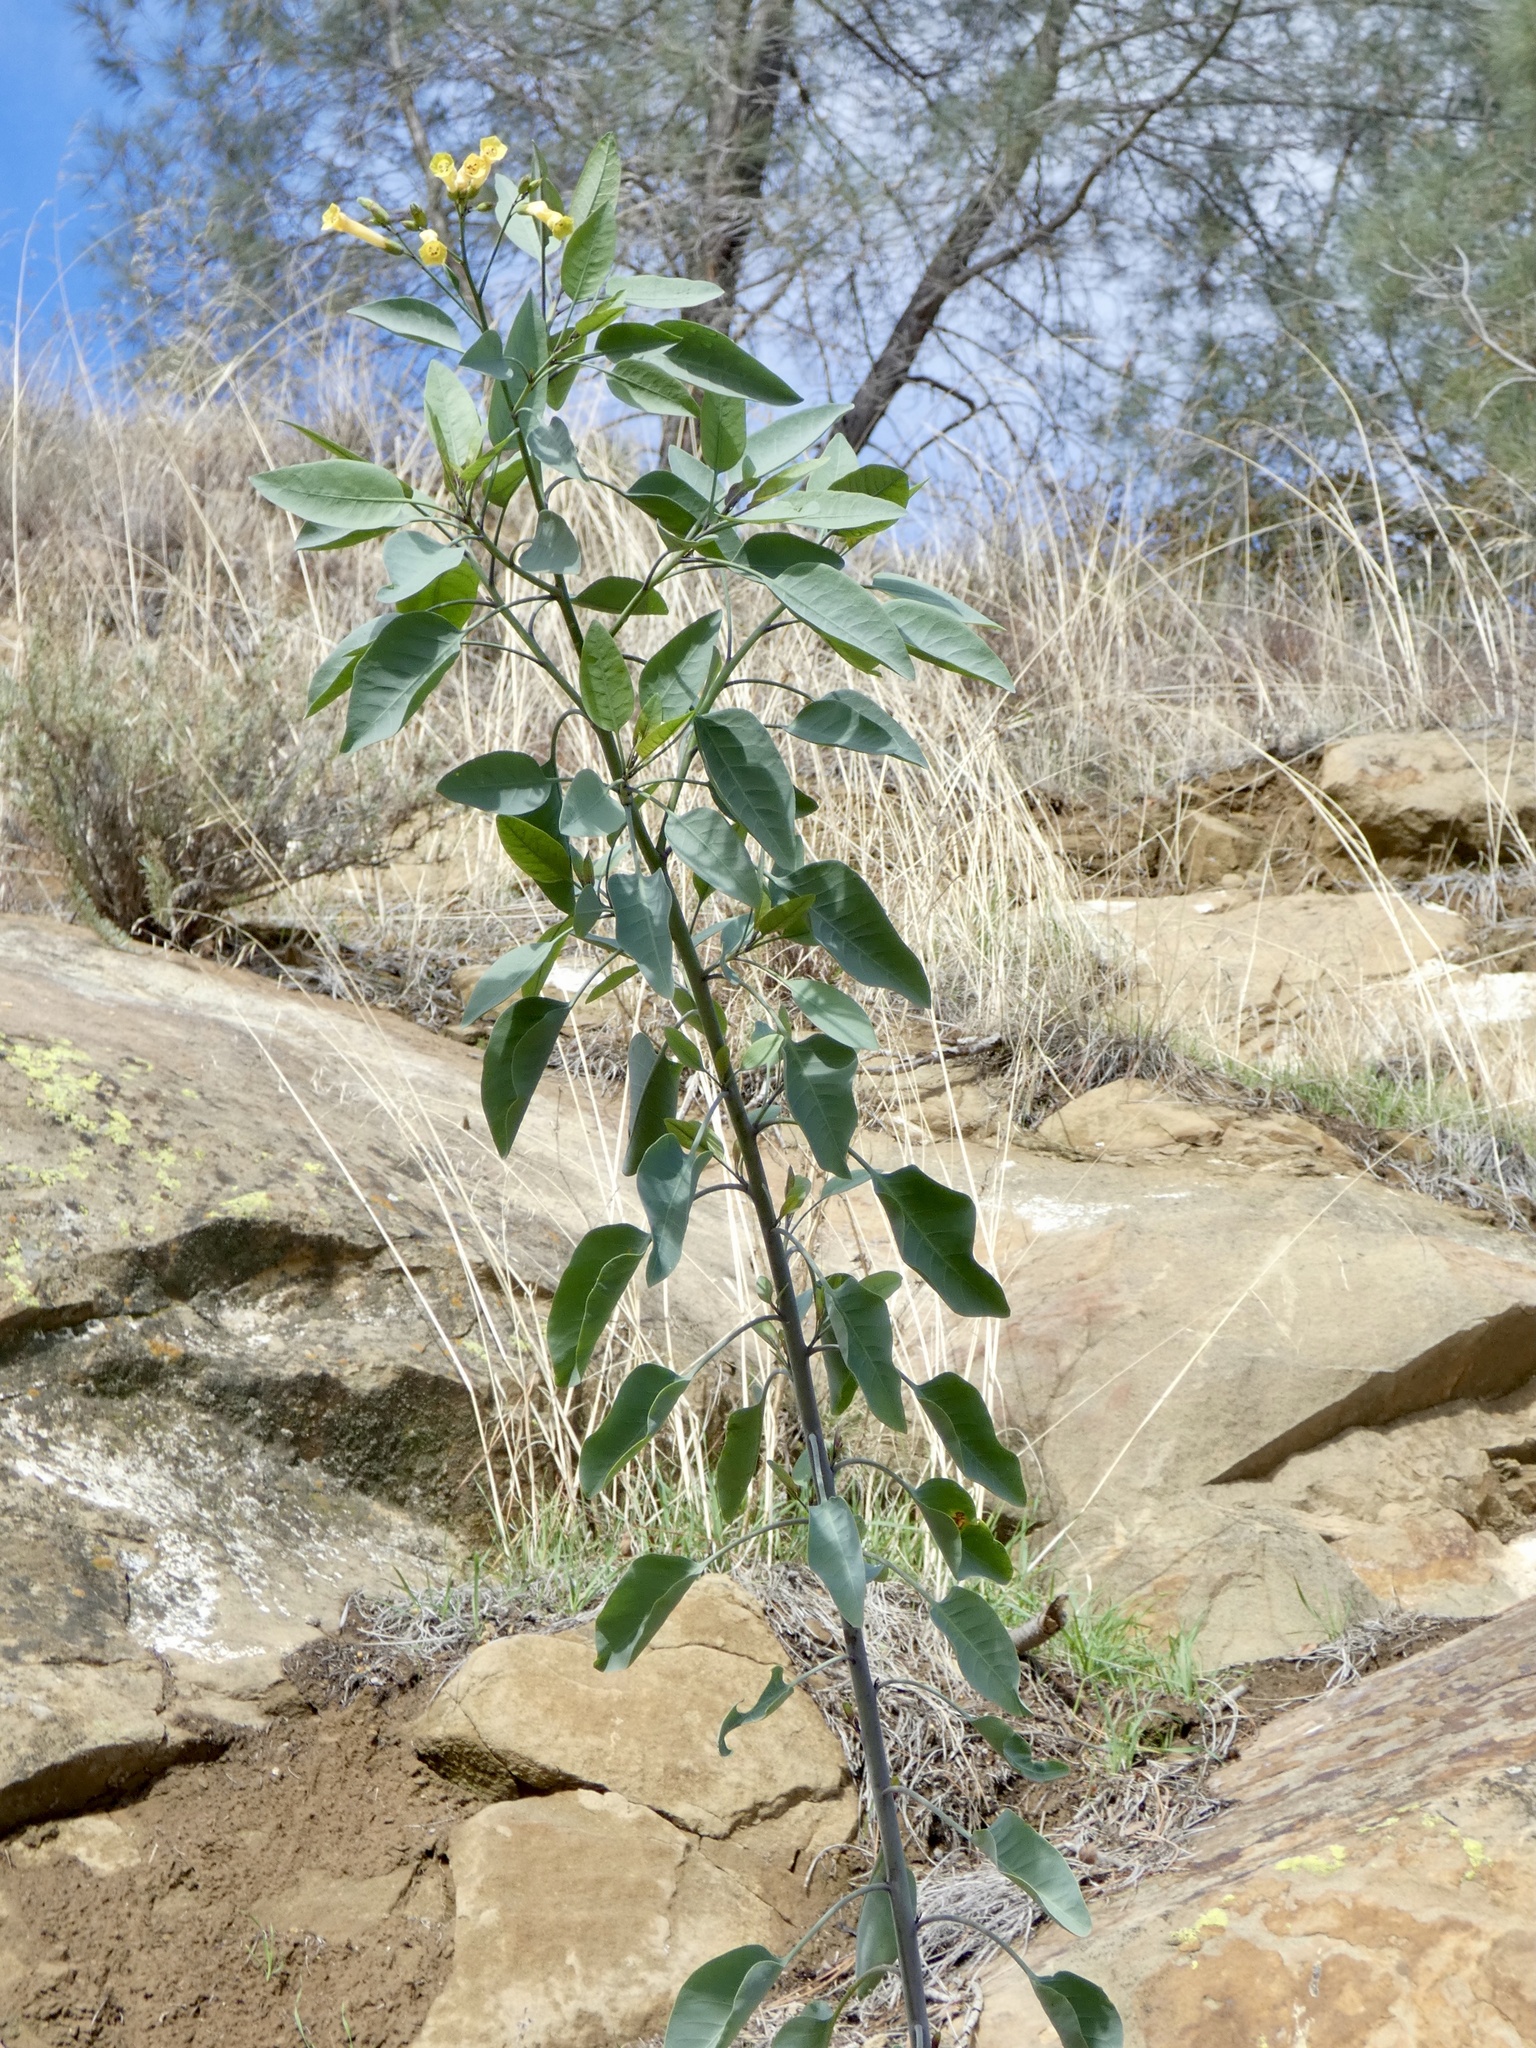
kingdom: Plantae
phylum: Tracheophyta
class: Magnoliopsida
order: Solanales
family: Solanaceae
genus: Nicotiana
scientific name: Nicotiana glauca
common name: Tree tobacco
